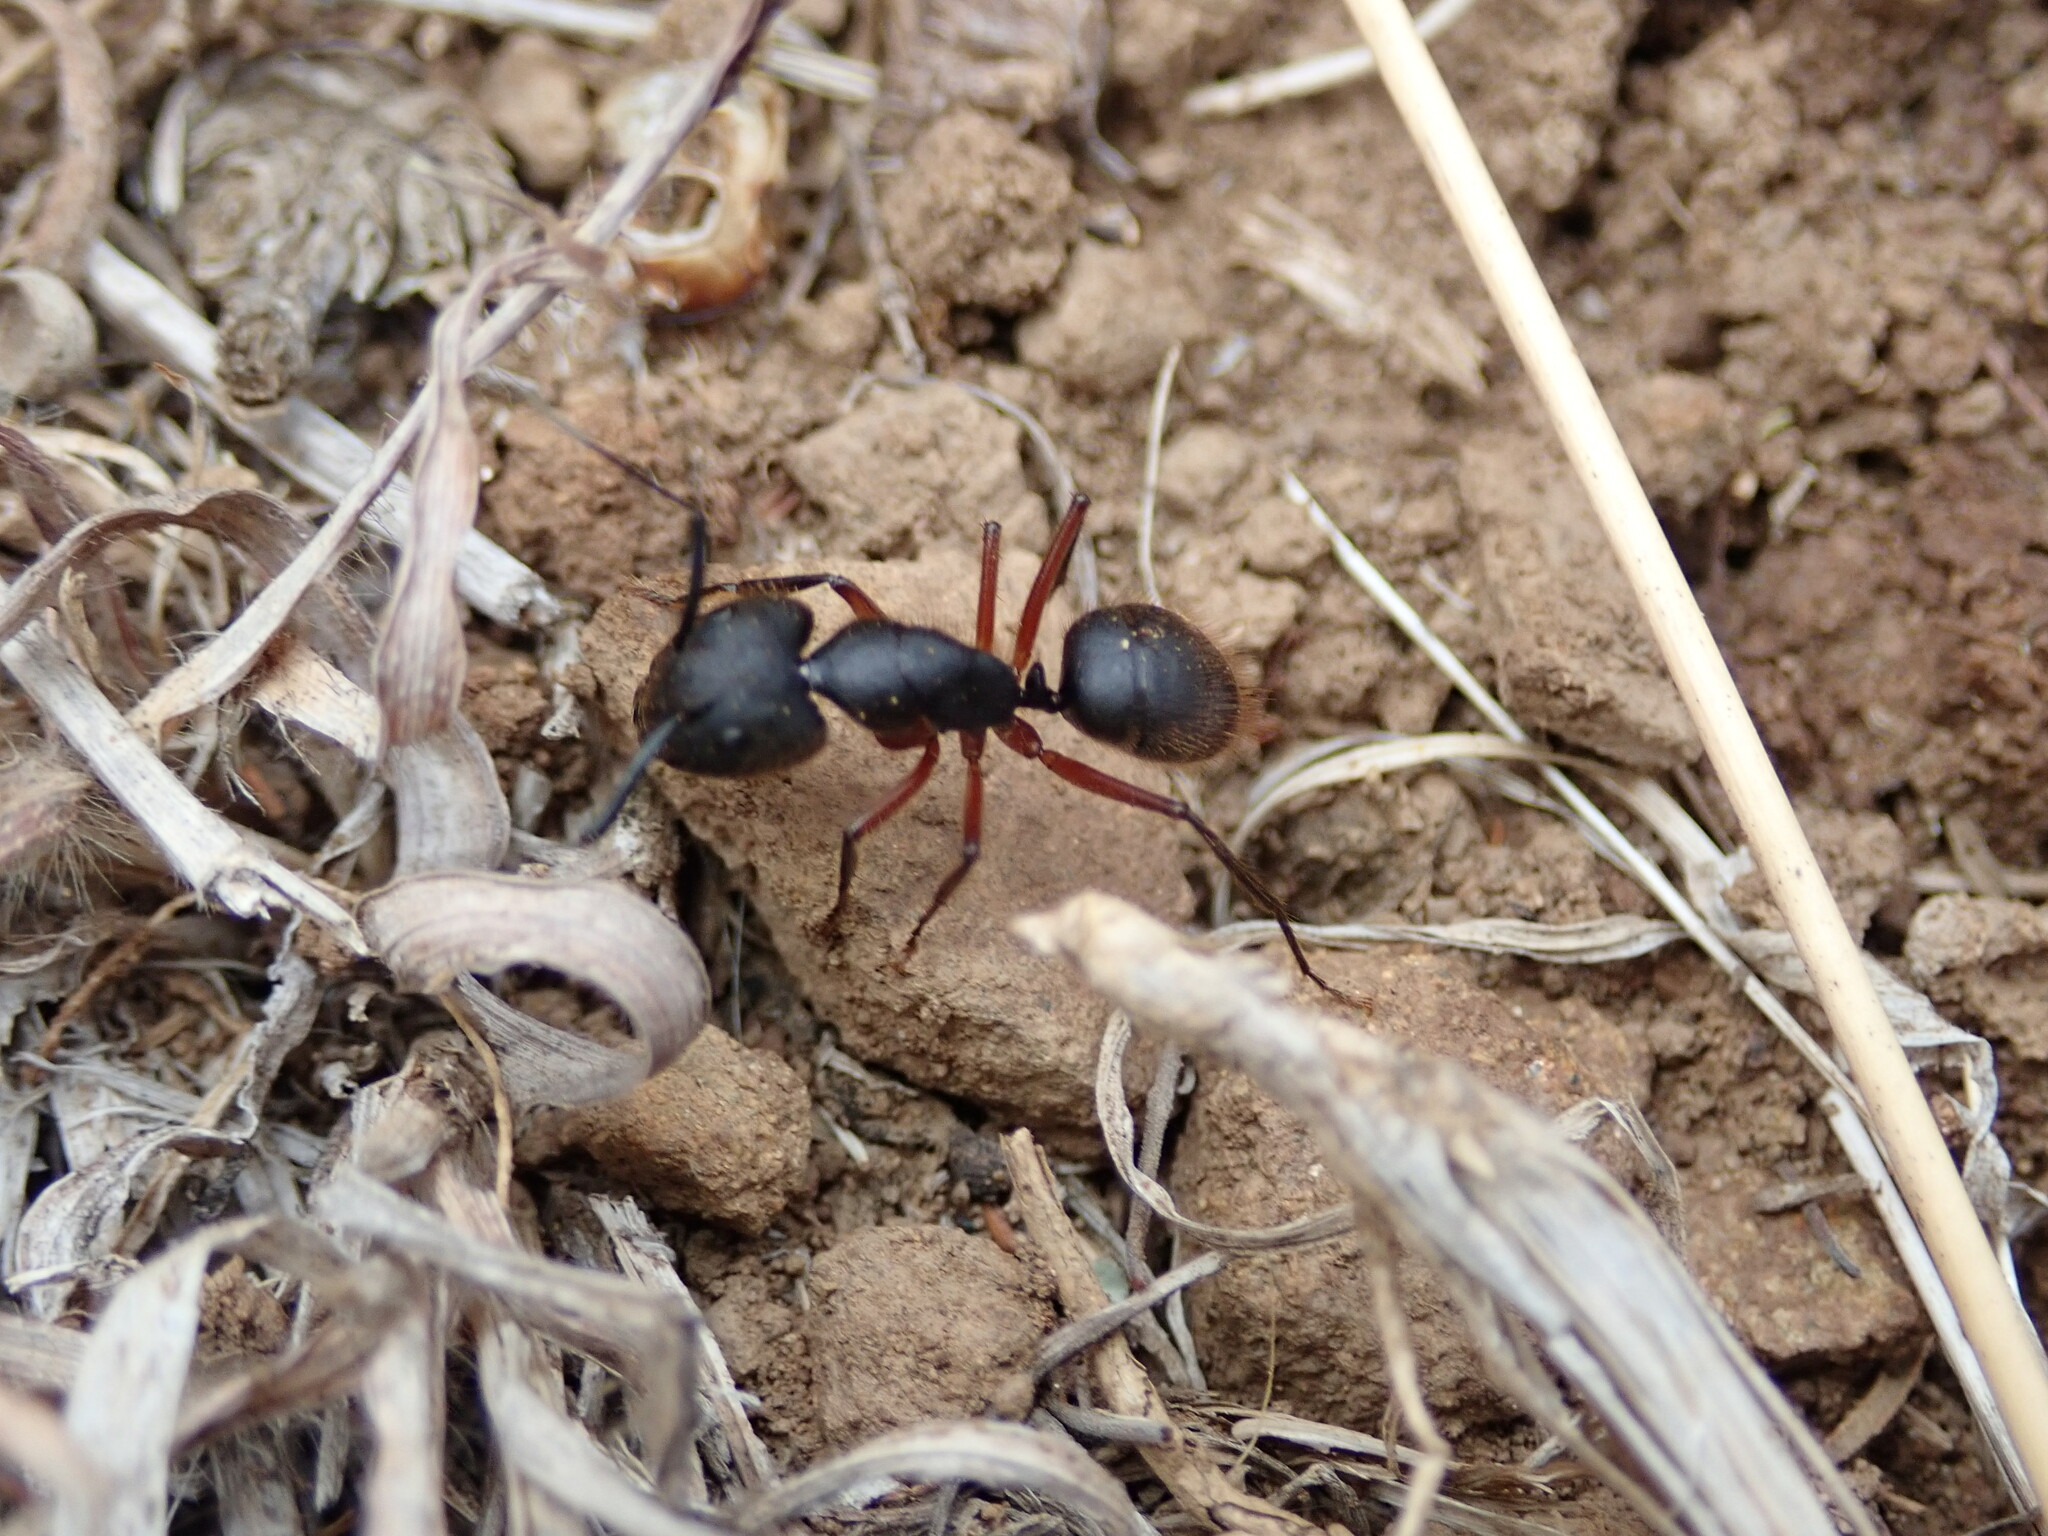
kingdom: Animalia
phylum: Arthropoda
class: Insecta
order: Hymenoptera
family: Formicidae
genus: Camponotus
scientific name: Camponotus rufipes
